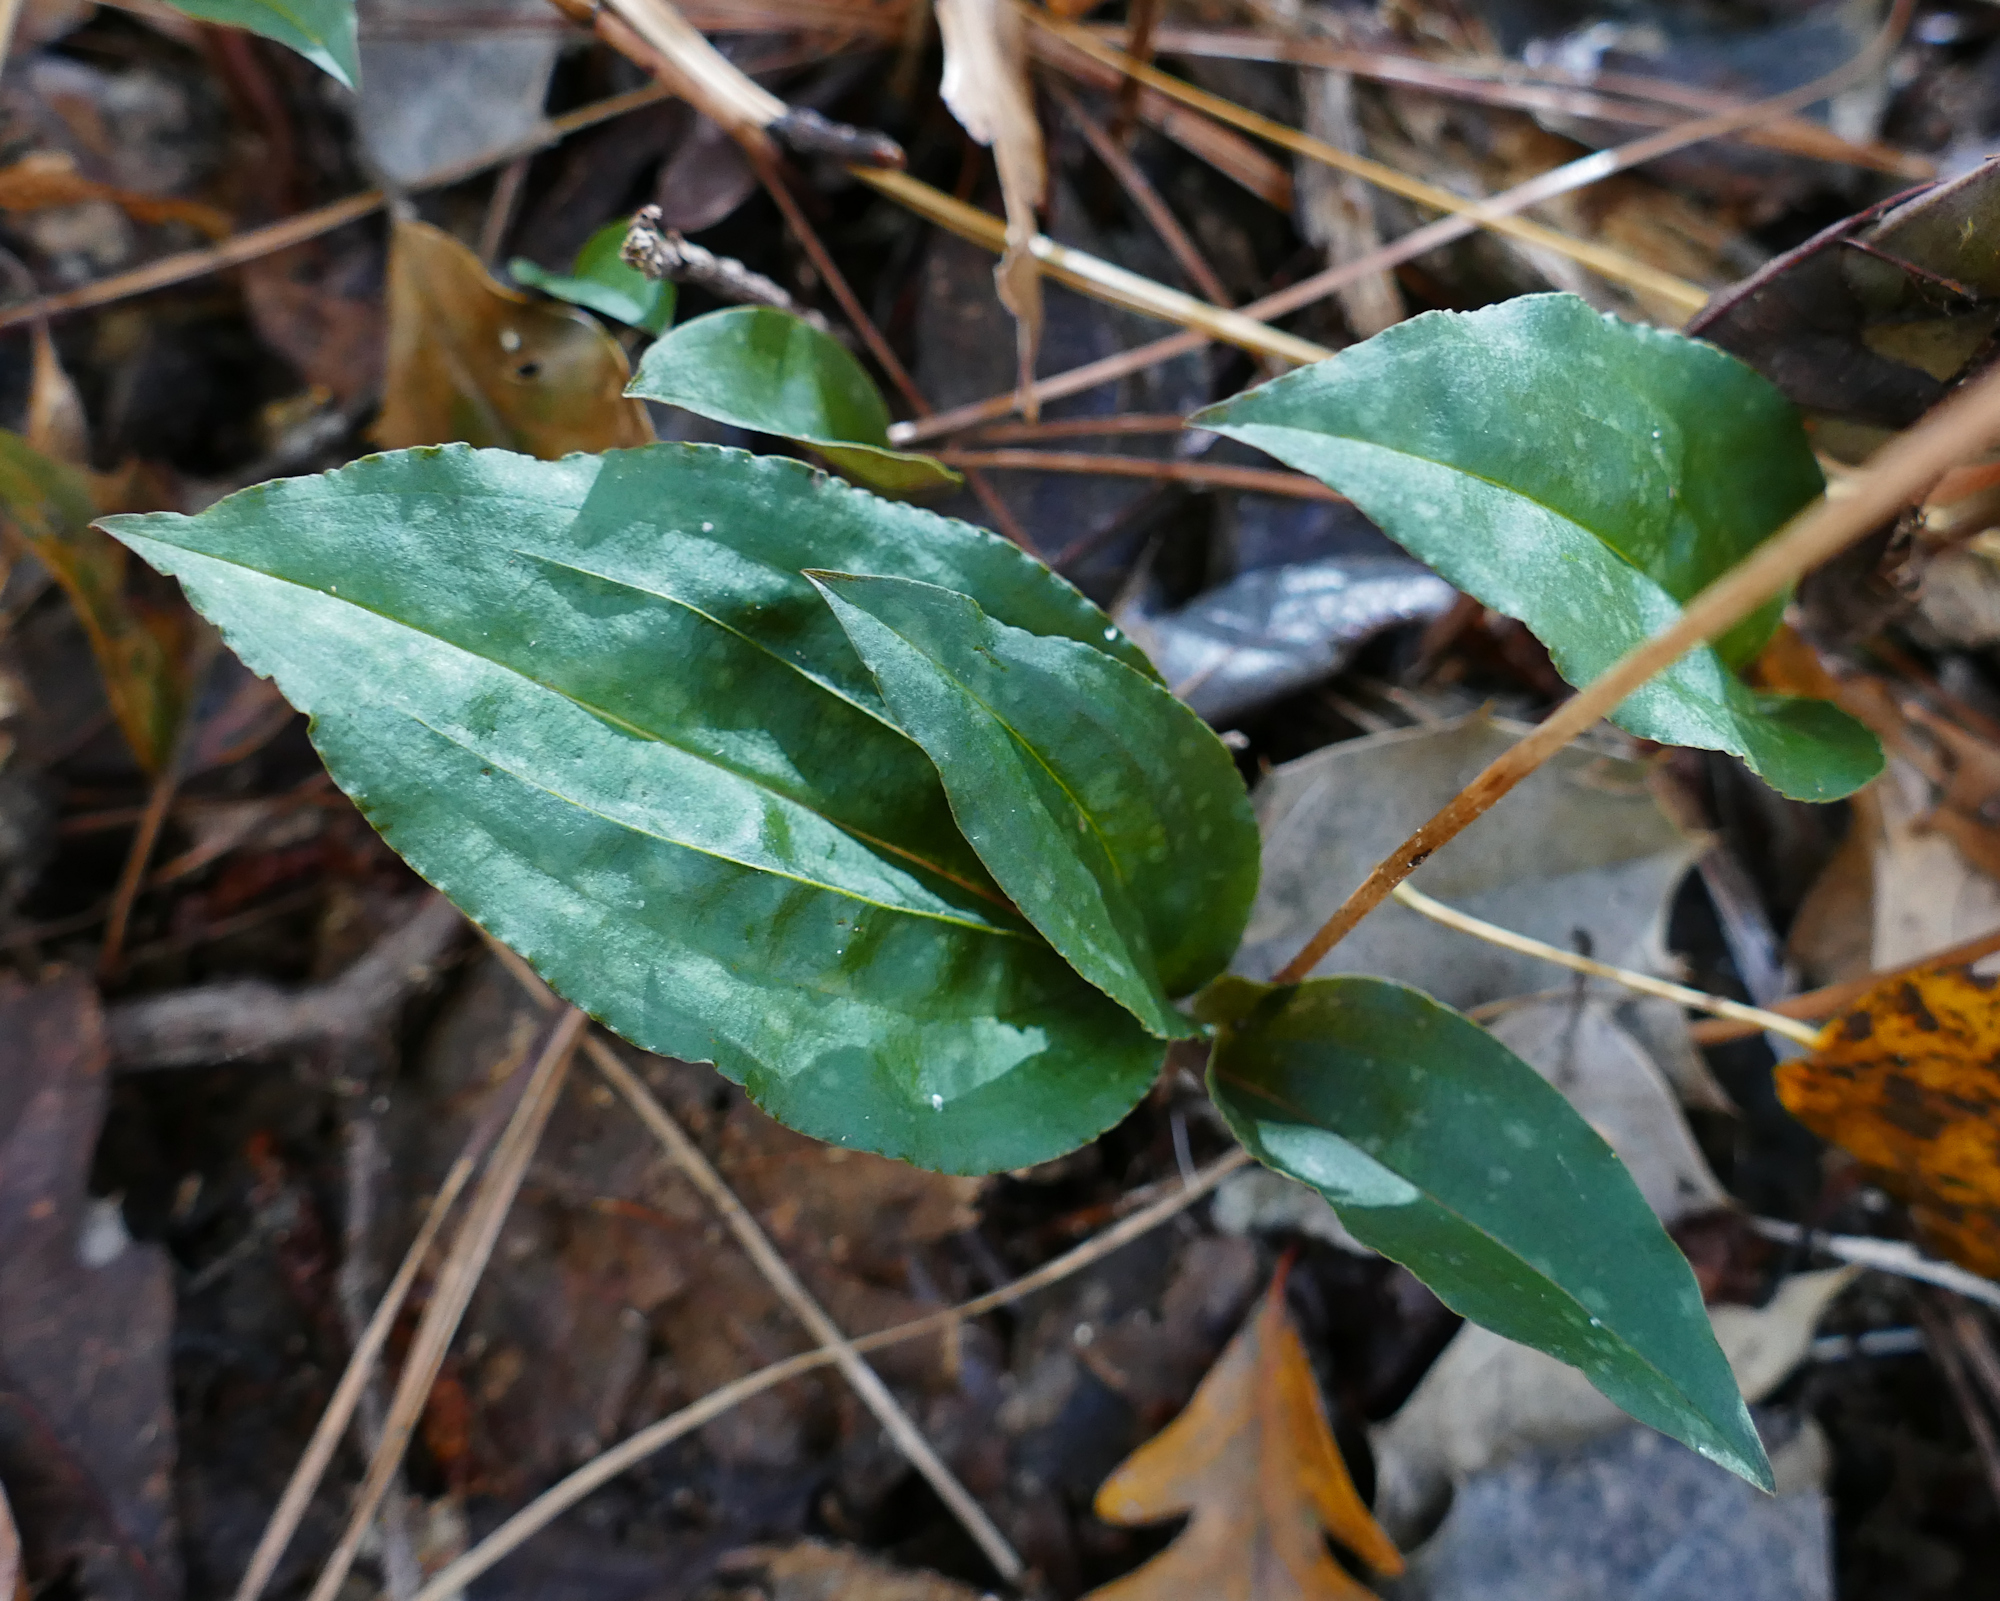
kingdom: Plantae
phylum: Tracheophyta
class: Liliopsida
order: Asparagales
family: Orchidaceae
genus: Tipularia
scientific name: Tipularia discolor
